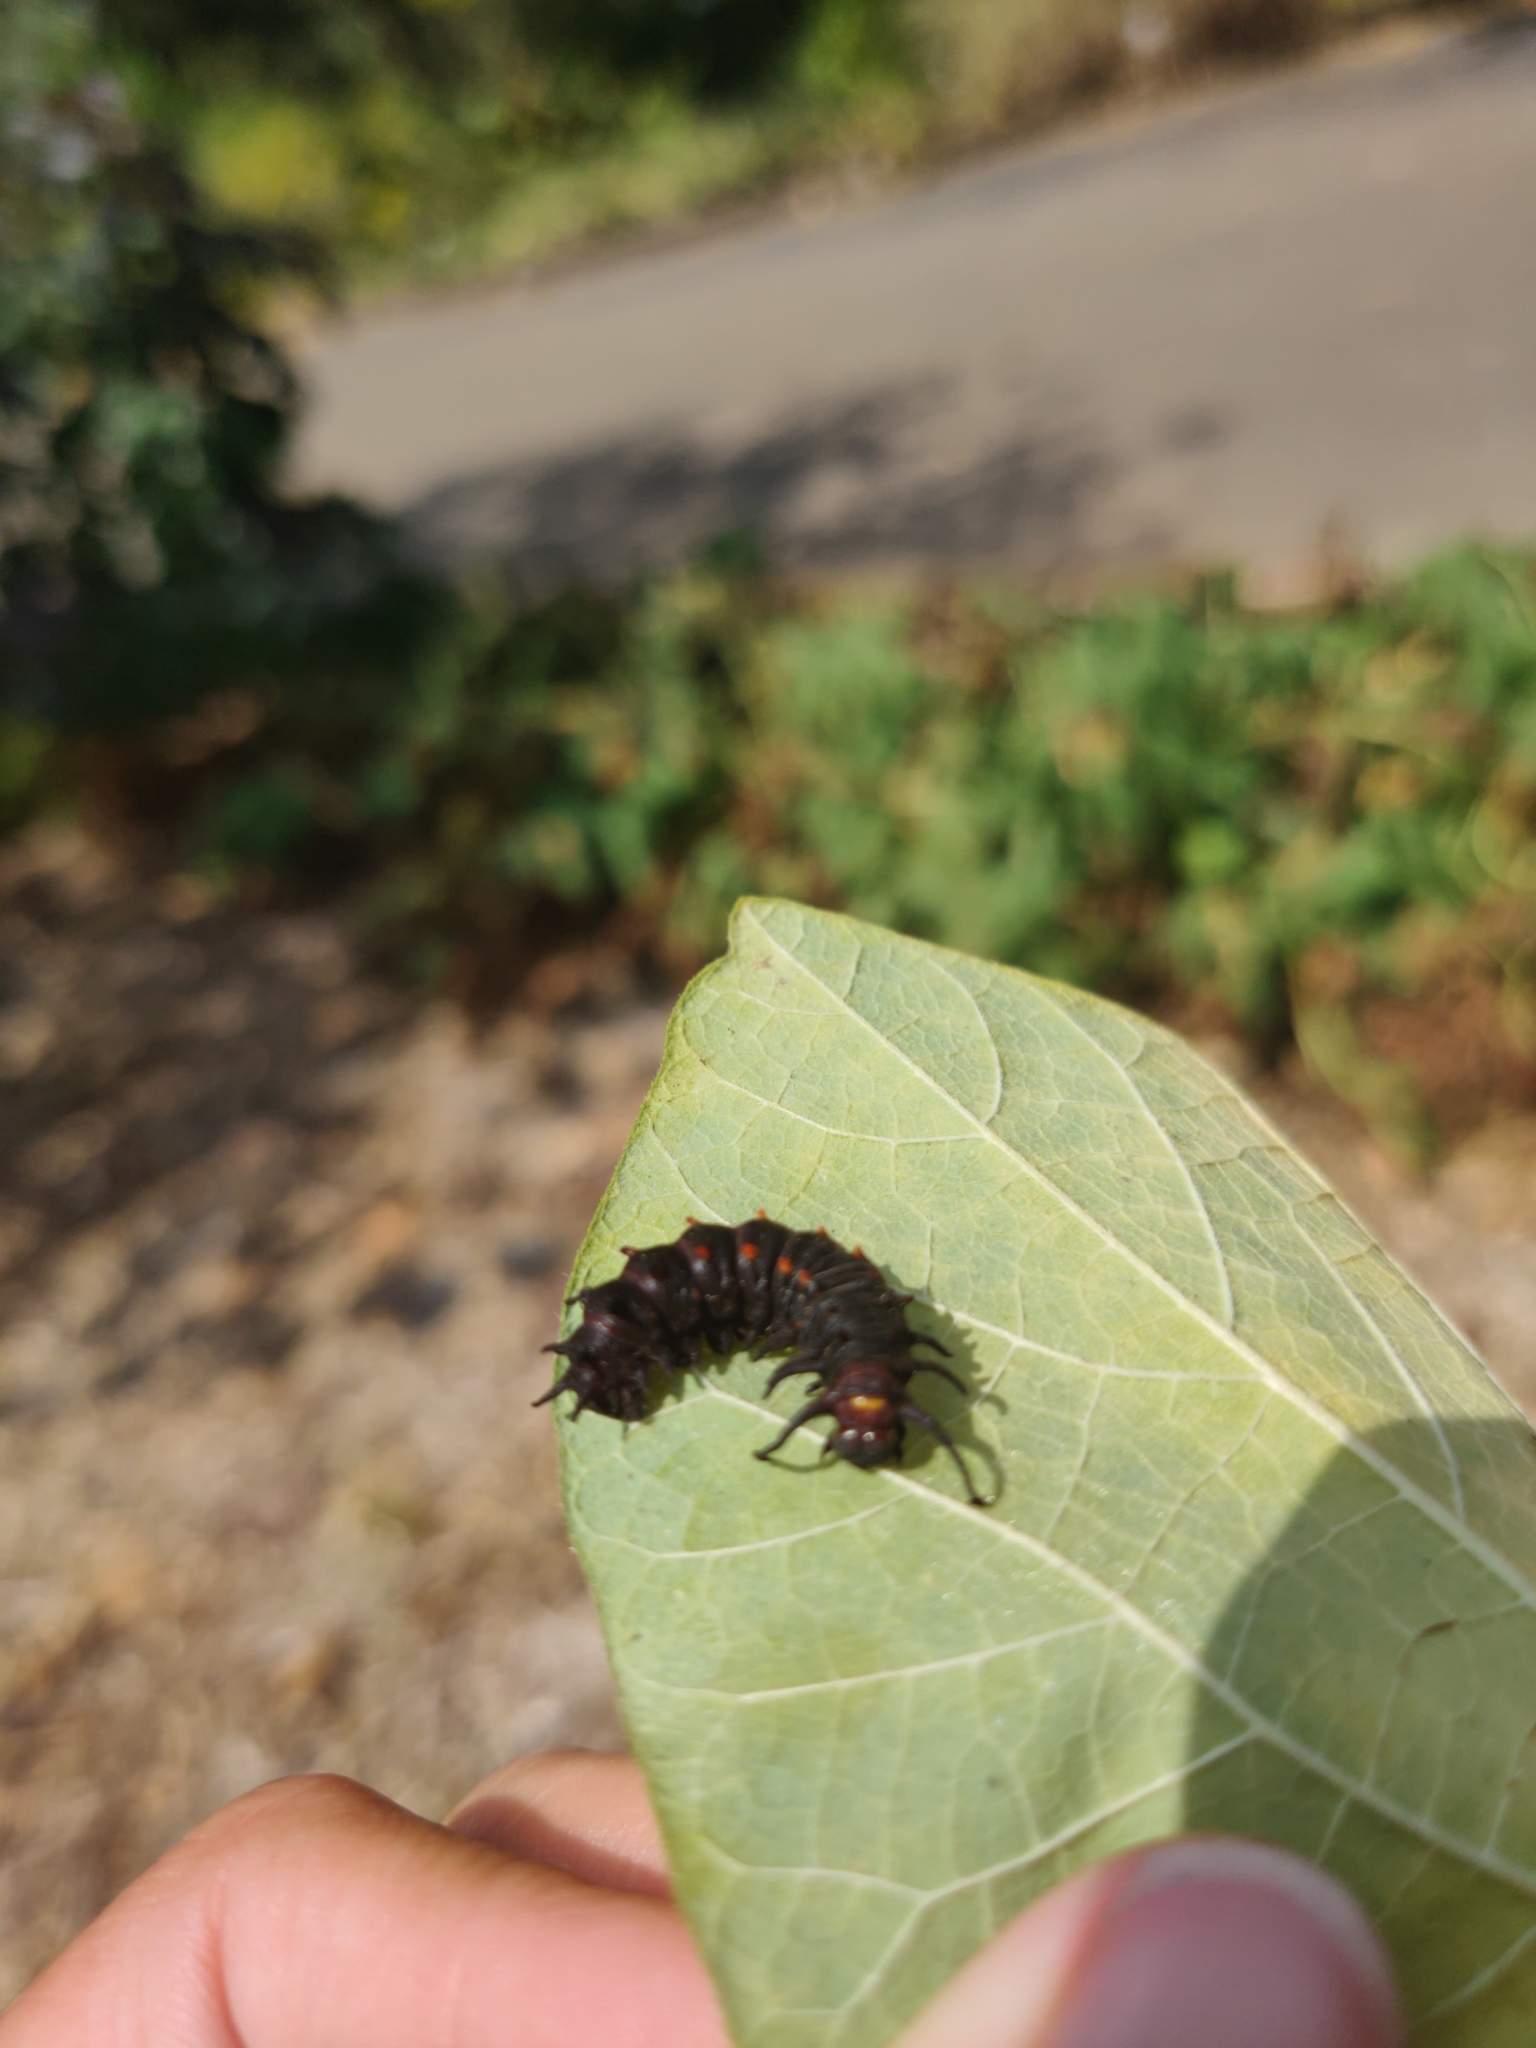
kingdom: Animalia
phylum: Arthropoda
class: Insecta
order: Lepidoptera
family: Papilionidae
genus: Battus
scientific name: Battus philenor
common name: Pipevine swallowtail
